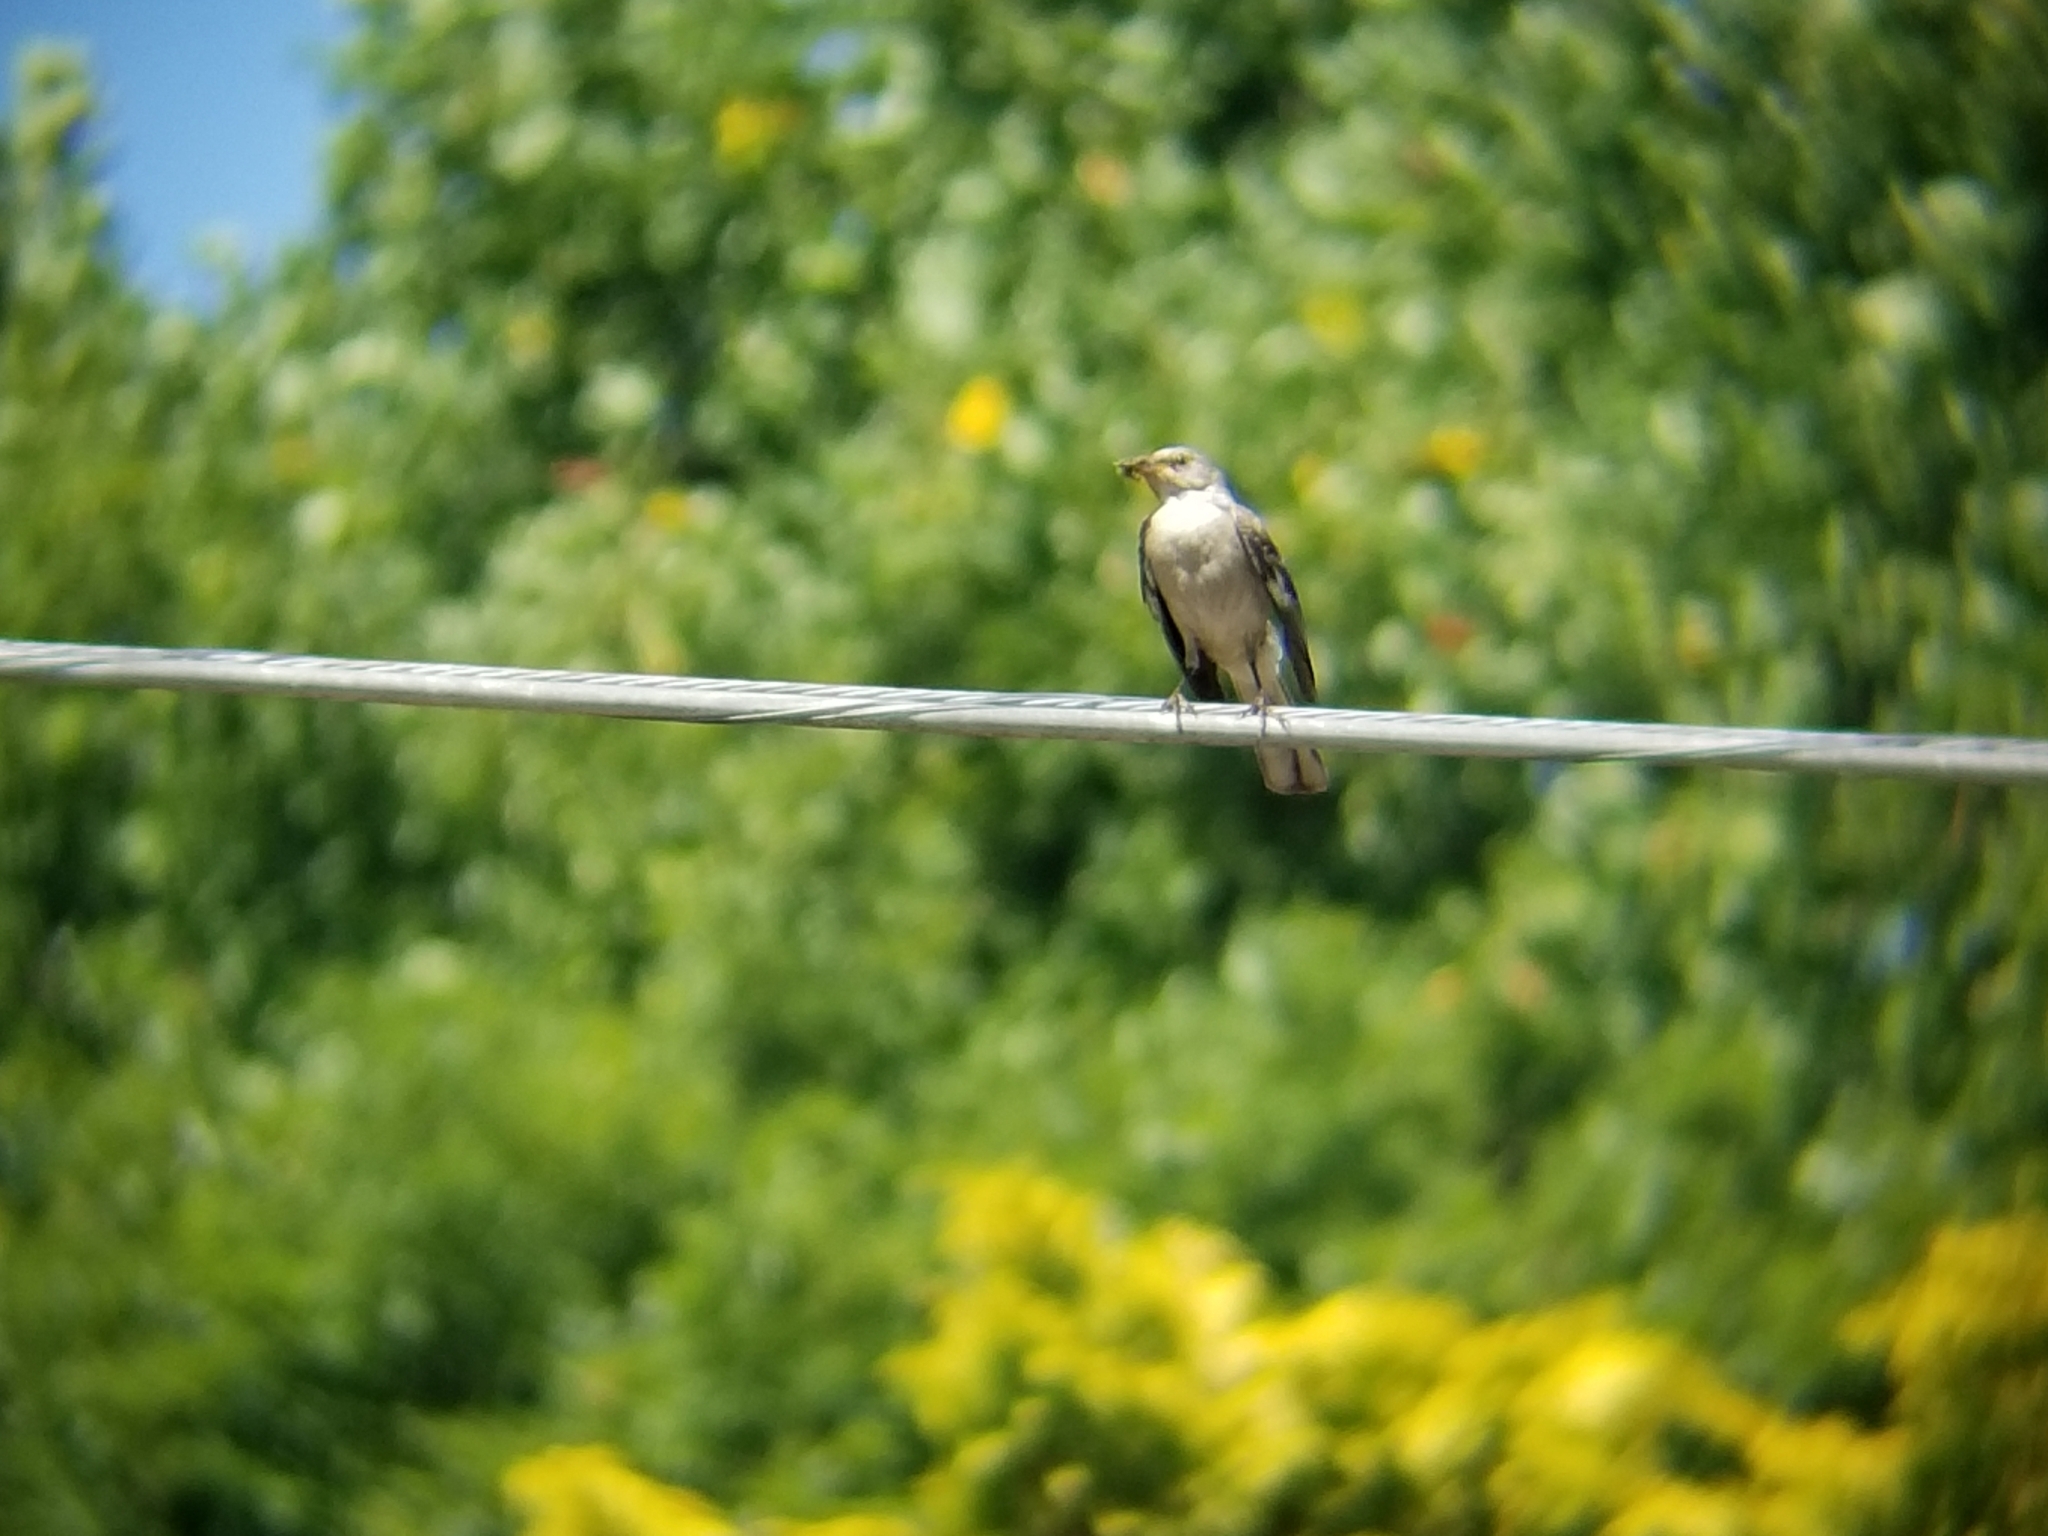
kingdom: Animalia
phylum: Chordata
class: Aves
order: Passeriformes
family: Mimidae
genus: Mimus
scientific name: Mimus polyglottos
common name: Northern mockingbird
